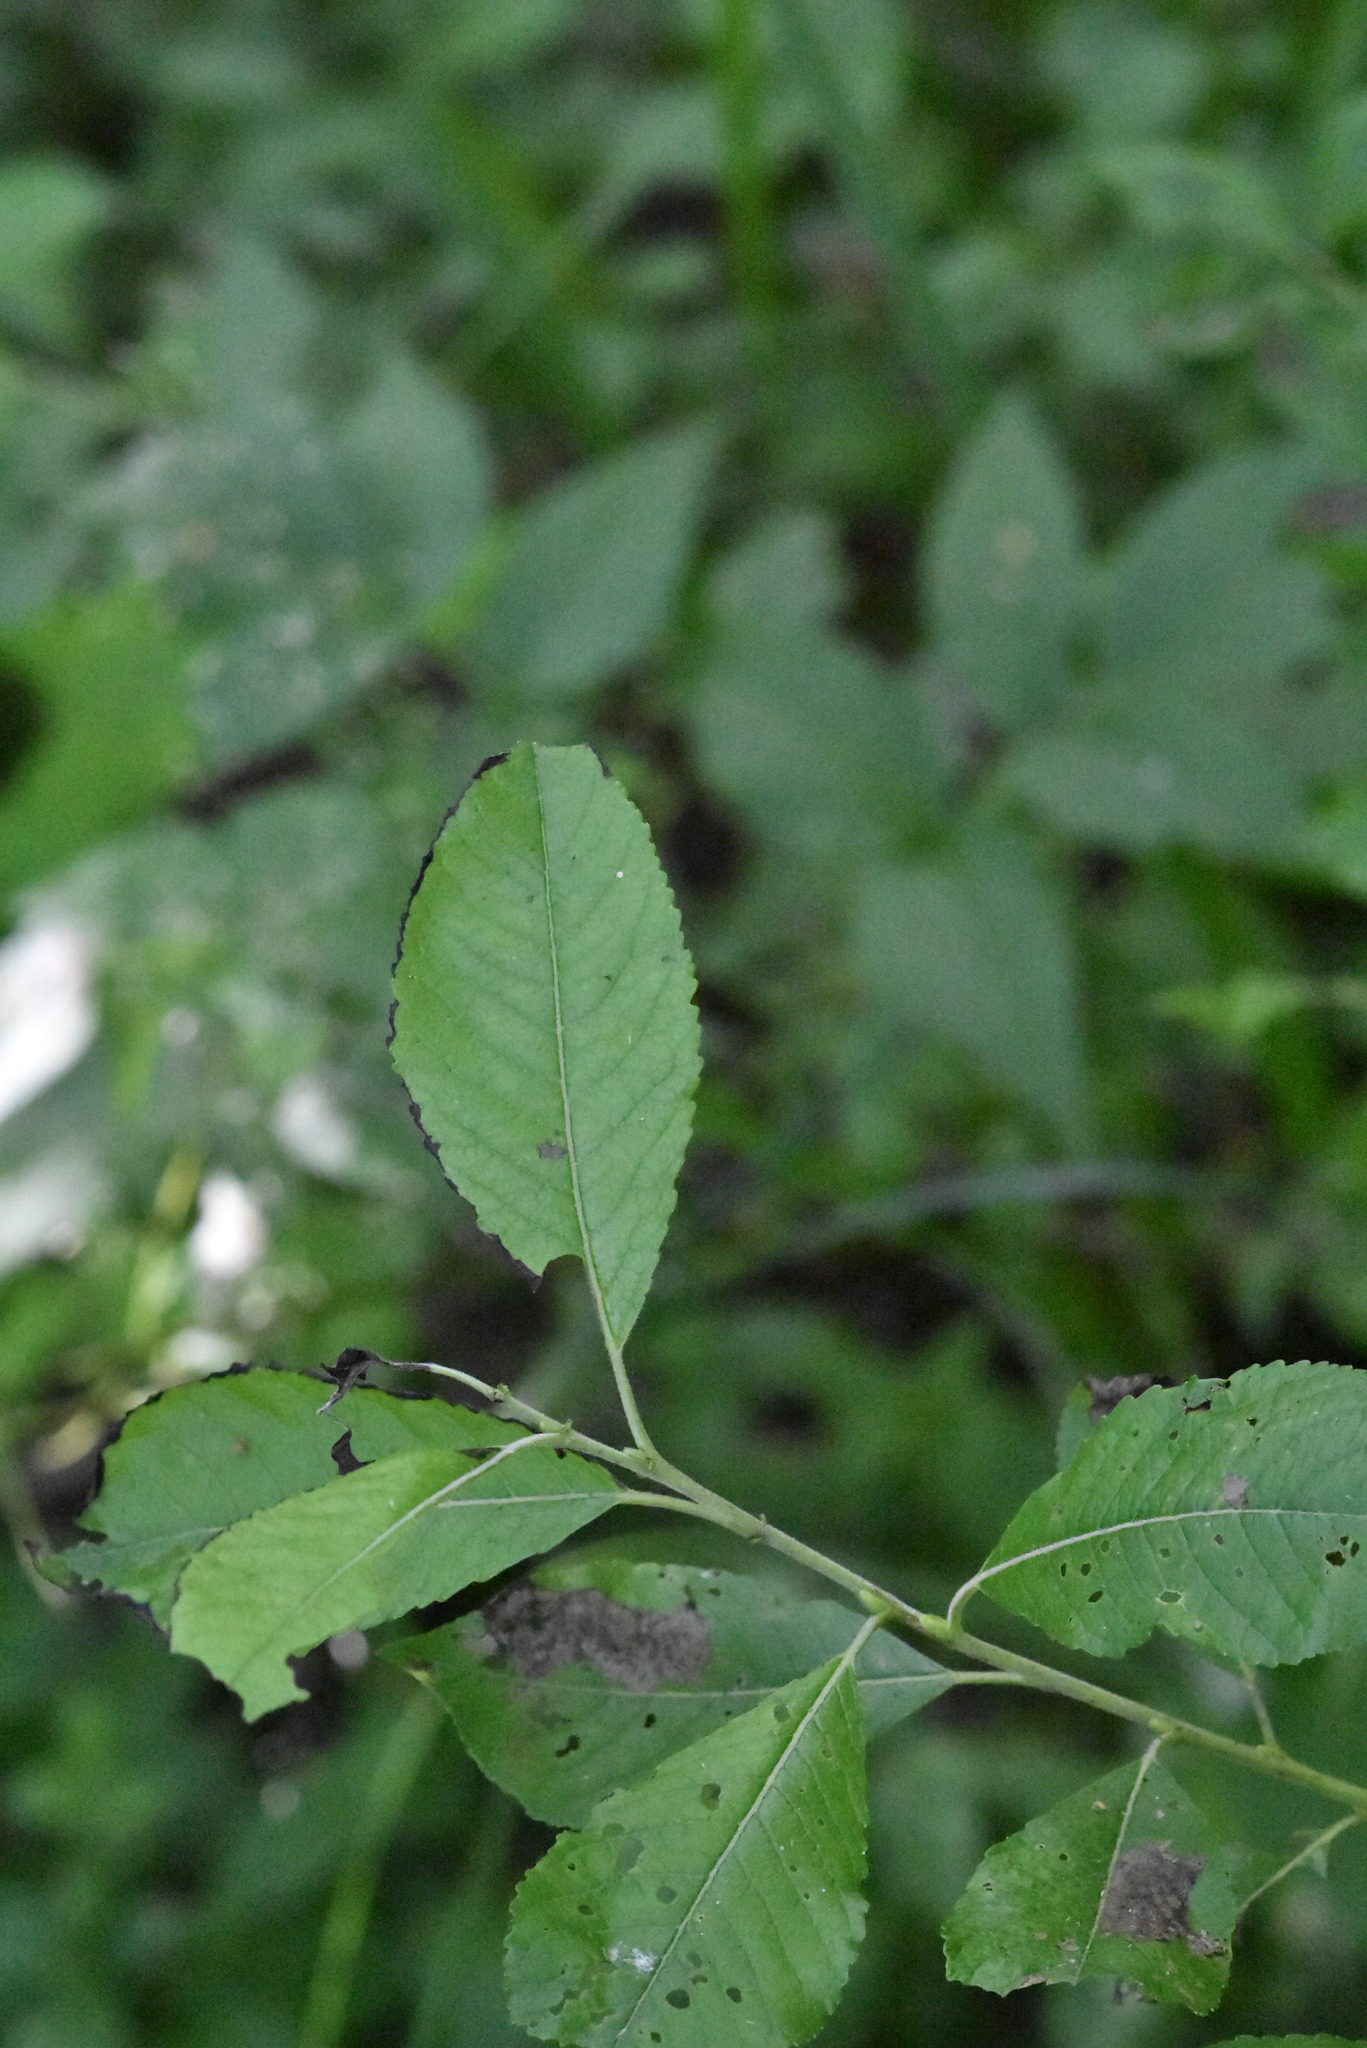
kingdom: Plantae
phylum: Tracheophyta
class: Magnoliopsida
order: Malpighiales
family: Salicaceae
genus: Salix
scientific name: Salix myrsinifolia
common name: Dark-leaved willow
